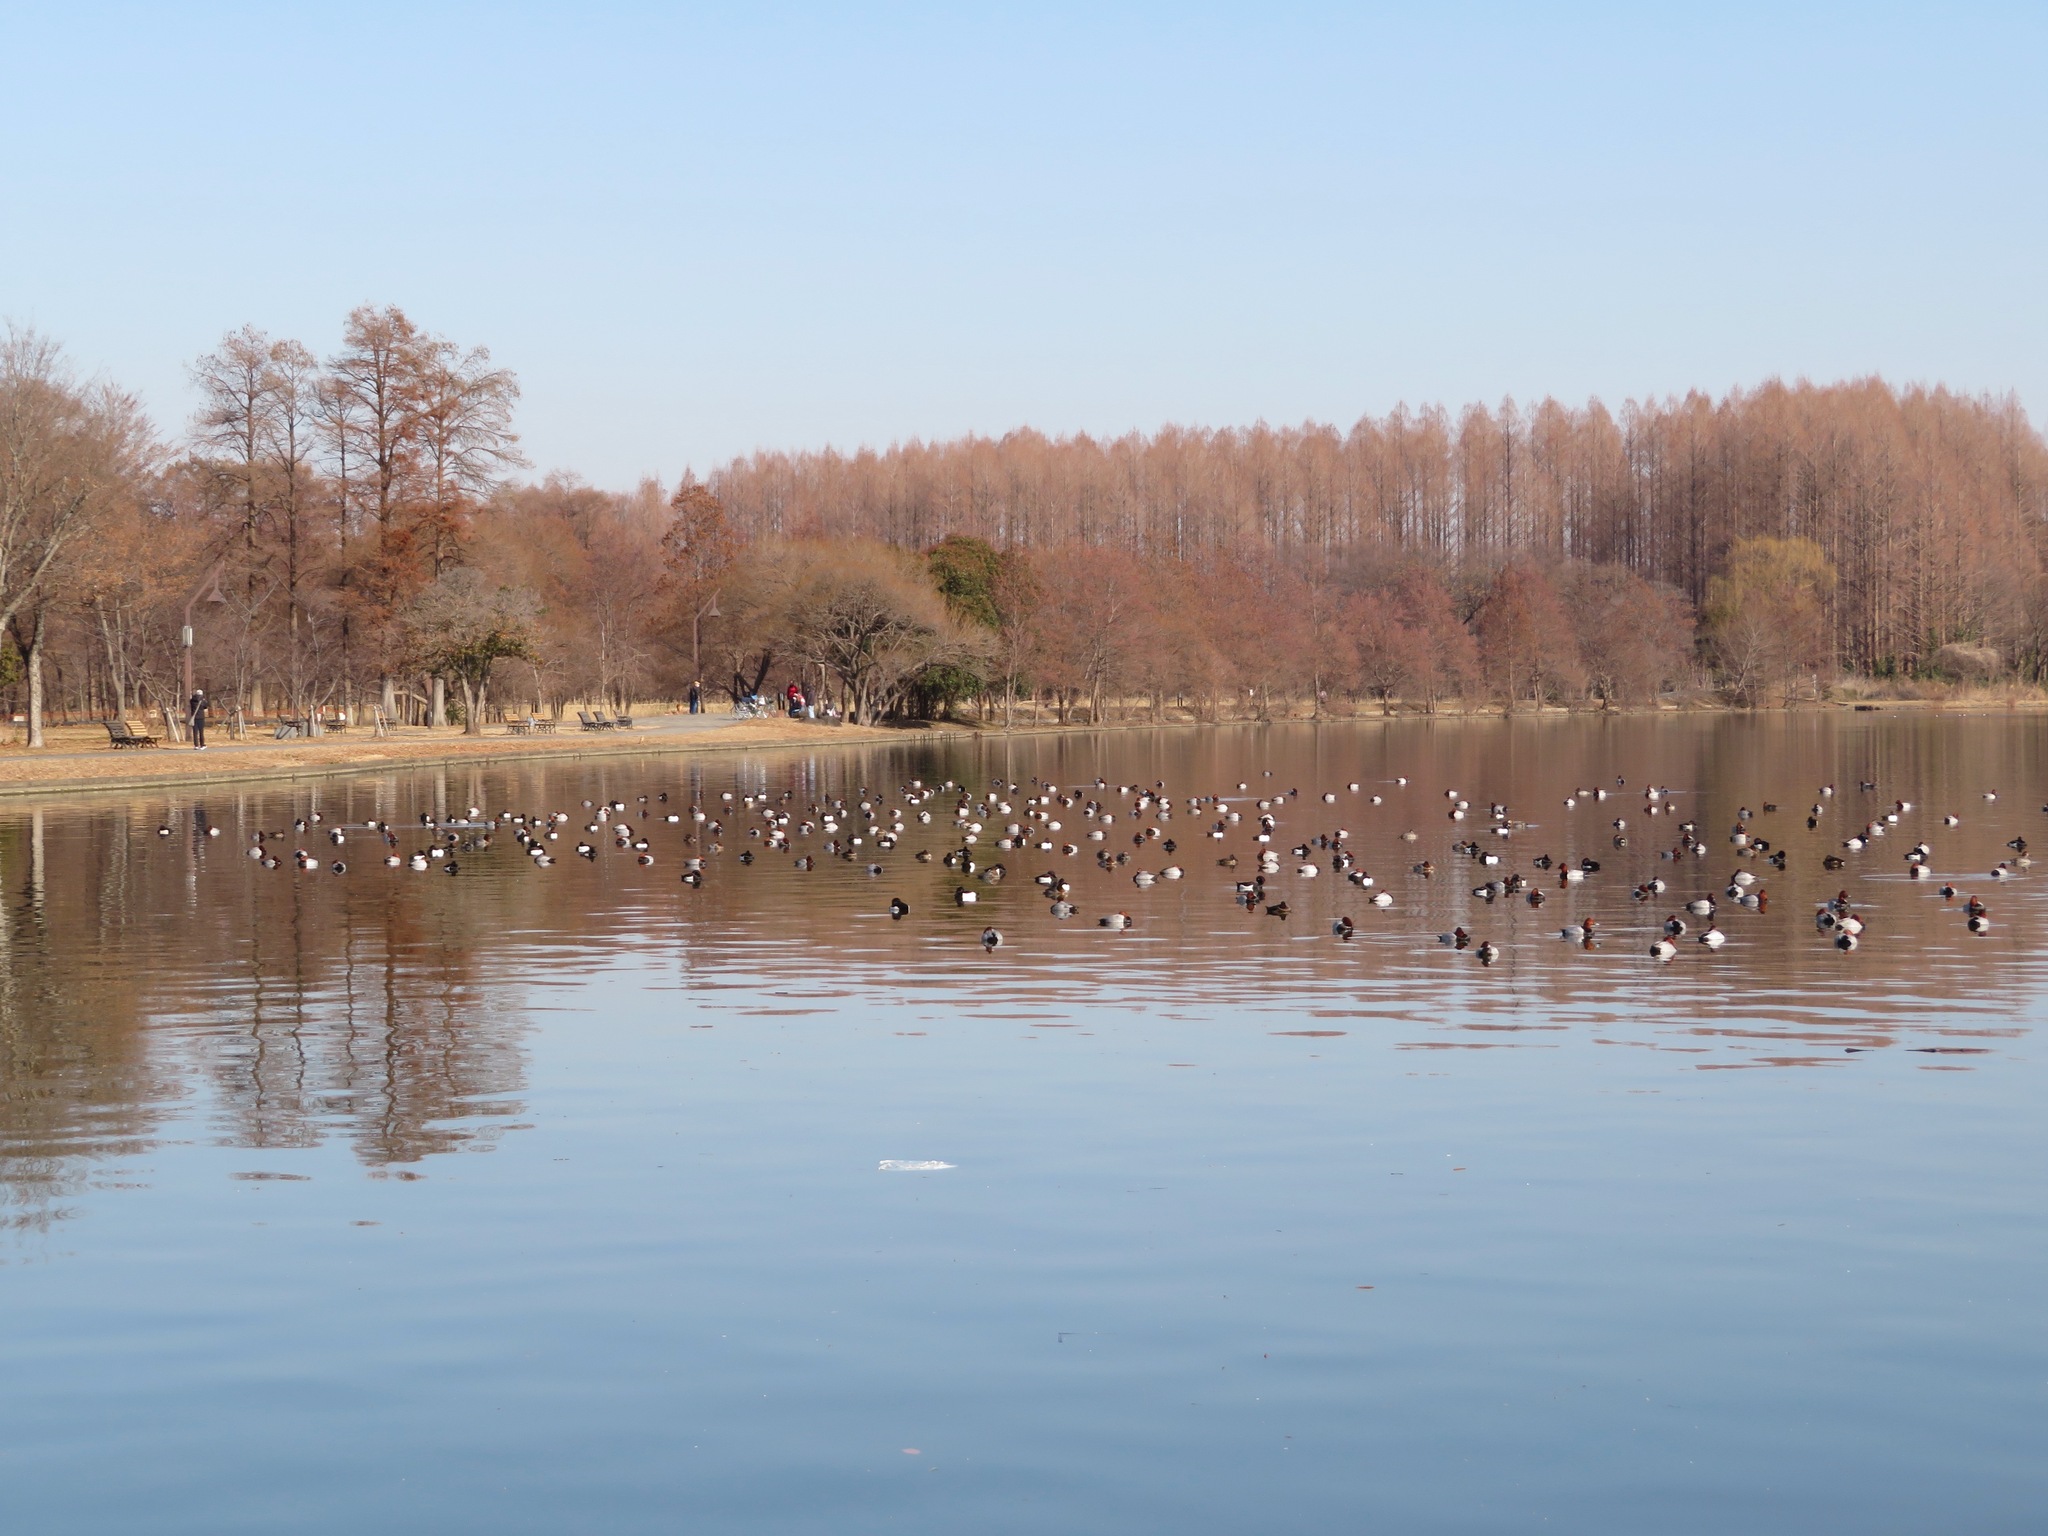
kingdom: Animalia
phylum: Chordata
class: Aves
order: Anseriformes
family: Anatidae
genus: Aythya
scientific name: Aythya ferina
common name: Common pochard
